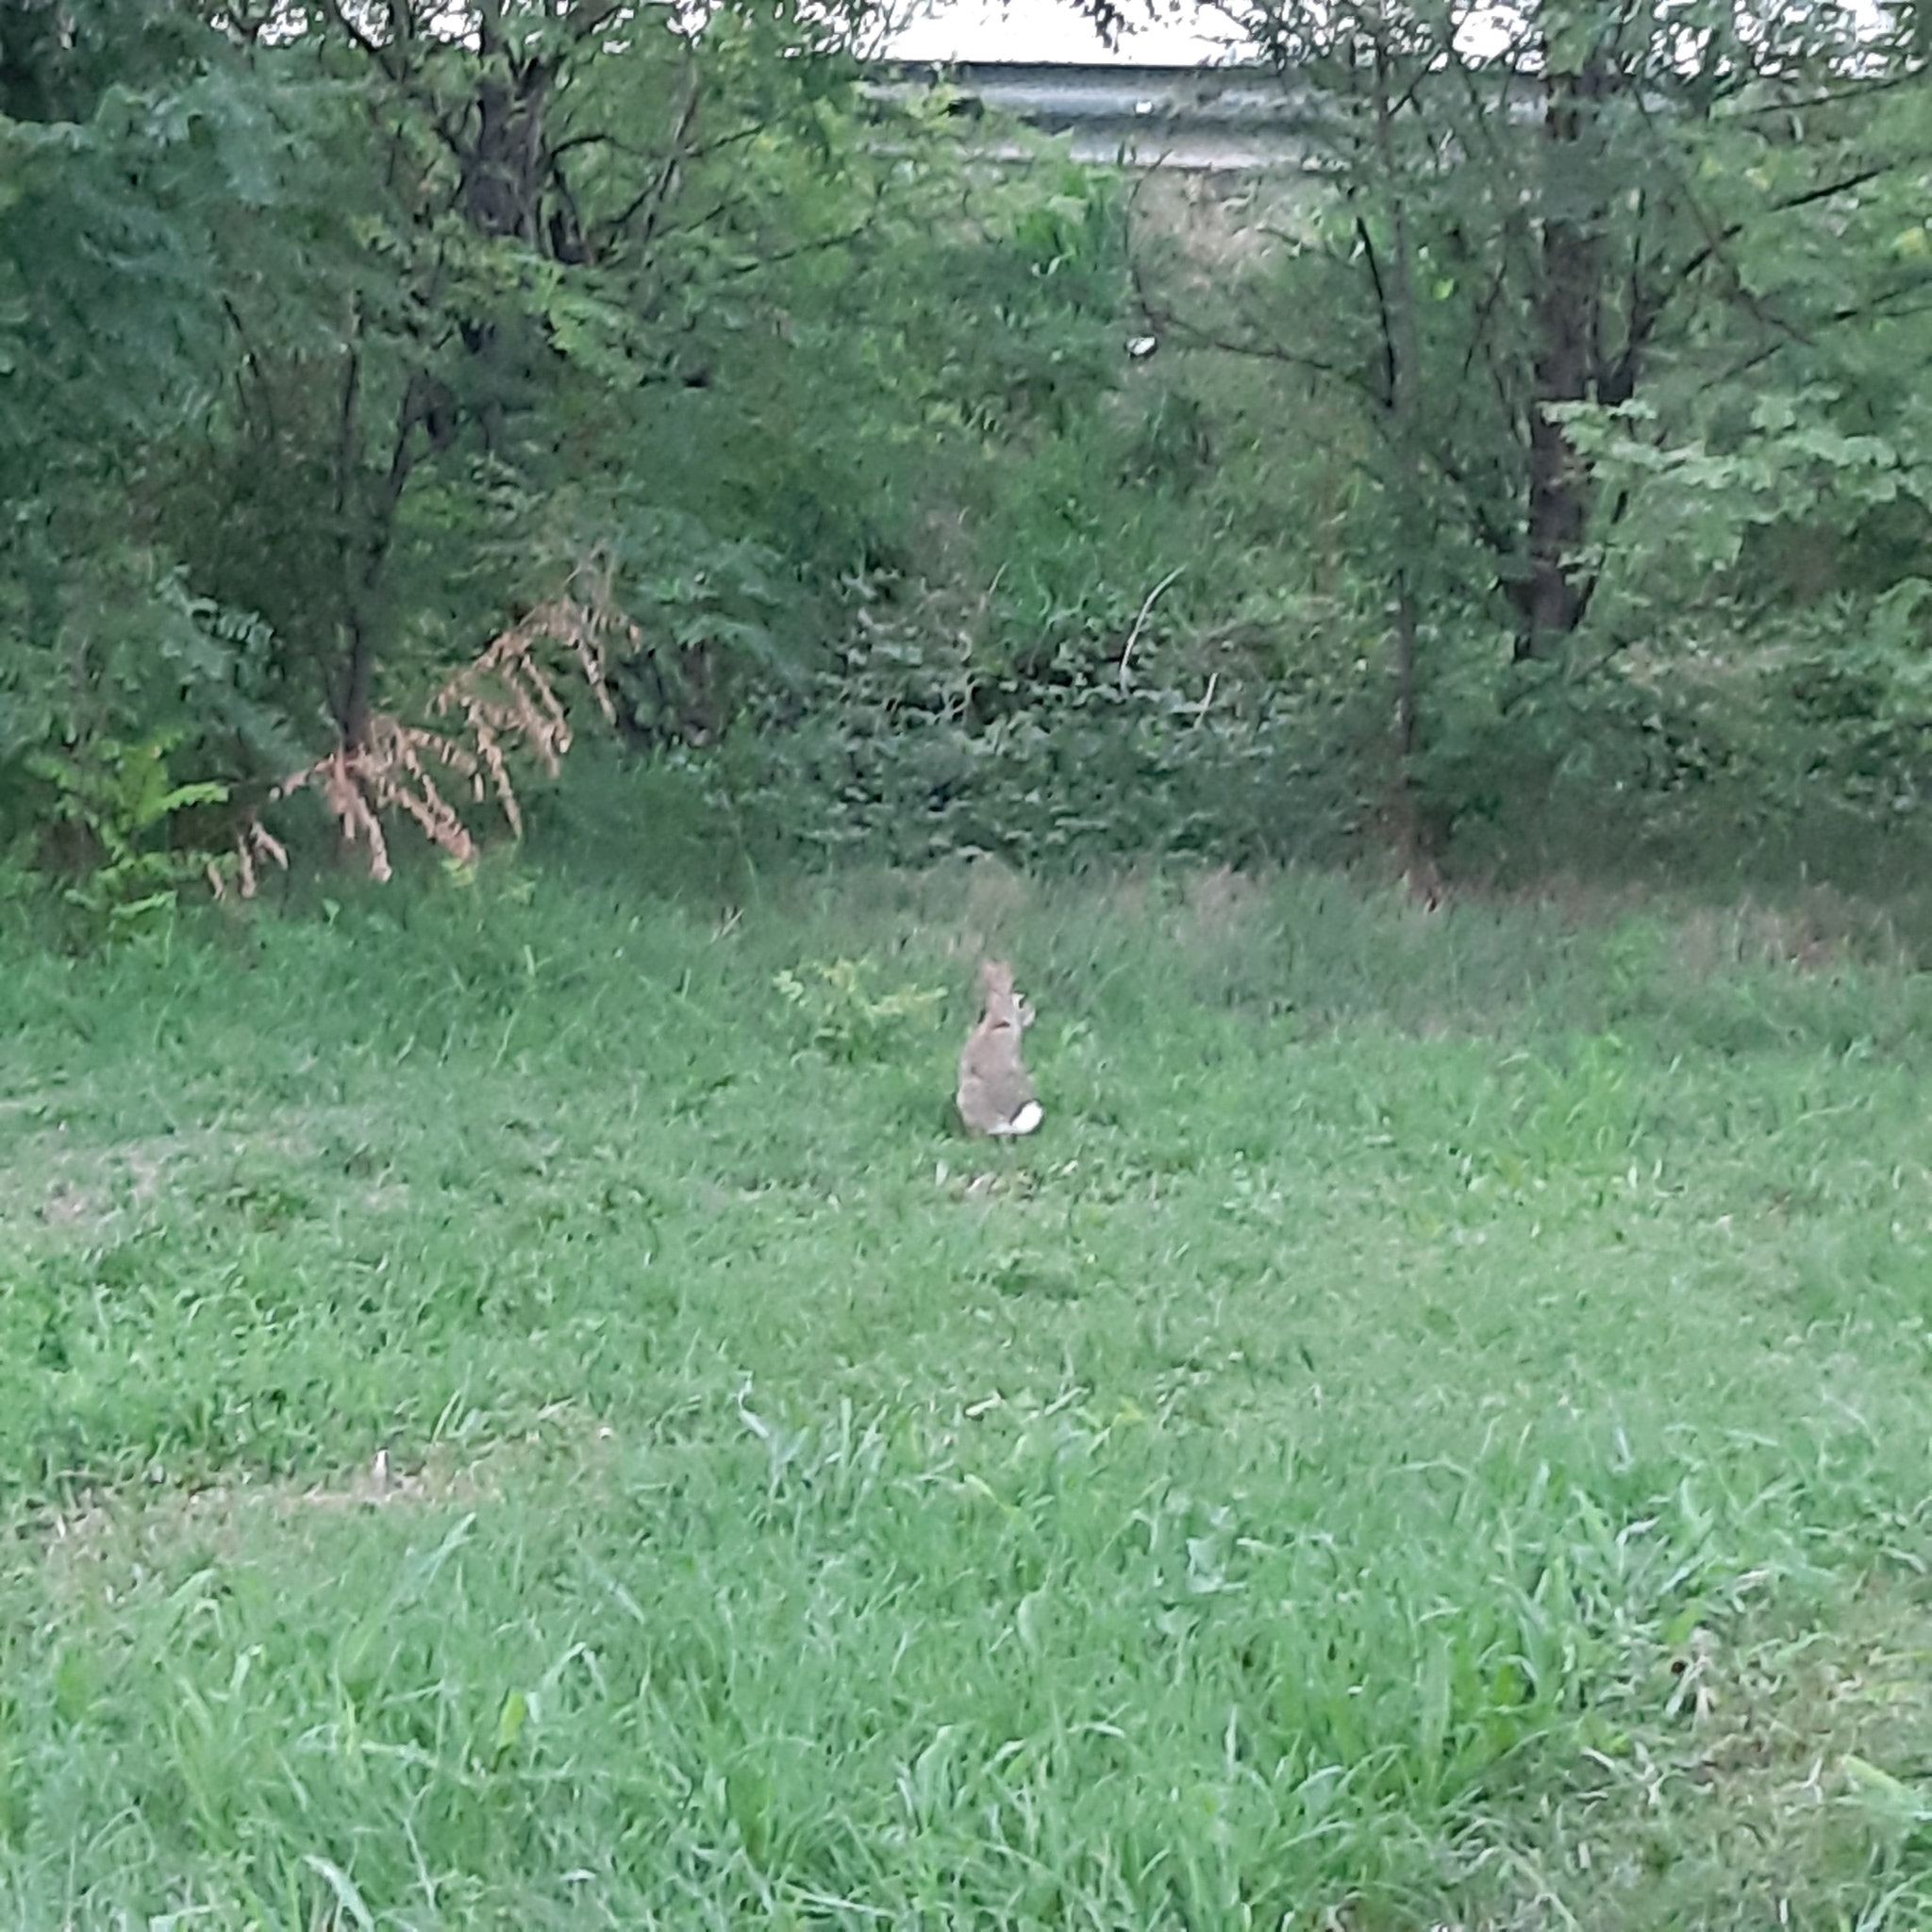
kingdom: Animalia
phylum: Chordata
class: Mammalia
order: Lagomorpha
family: Leporidae
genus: Sylvilagus
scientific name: Sylvilagus floridanus
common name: Eastern cottontail
